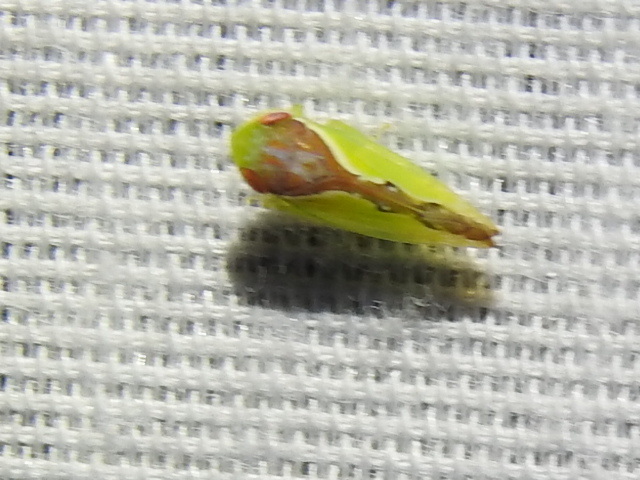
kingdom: Animalia
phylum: Arthropoda
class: Insecta
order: Hemiptera
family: Cicadellidae
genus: Omansobara ing
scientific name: Omansobara ing Omansobara palliolata
